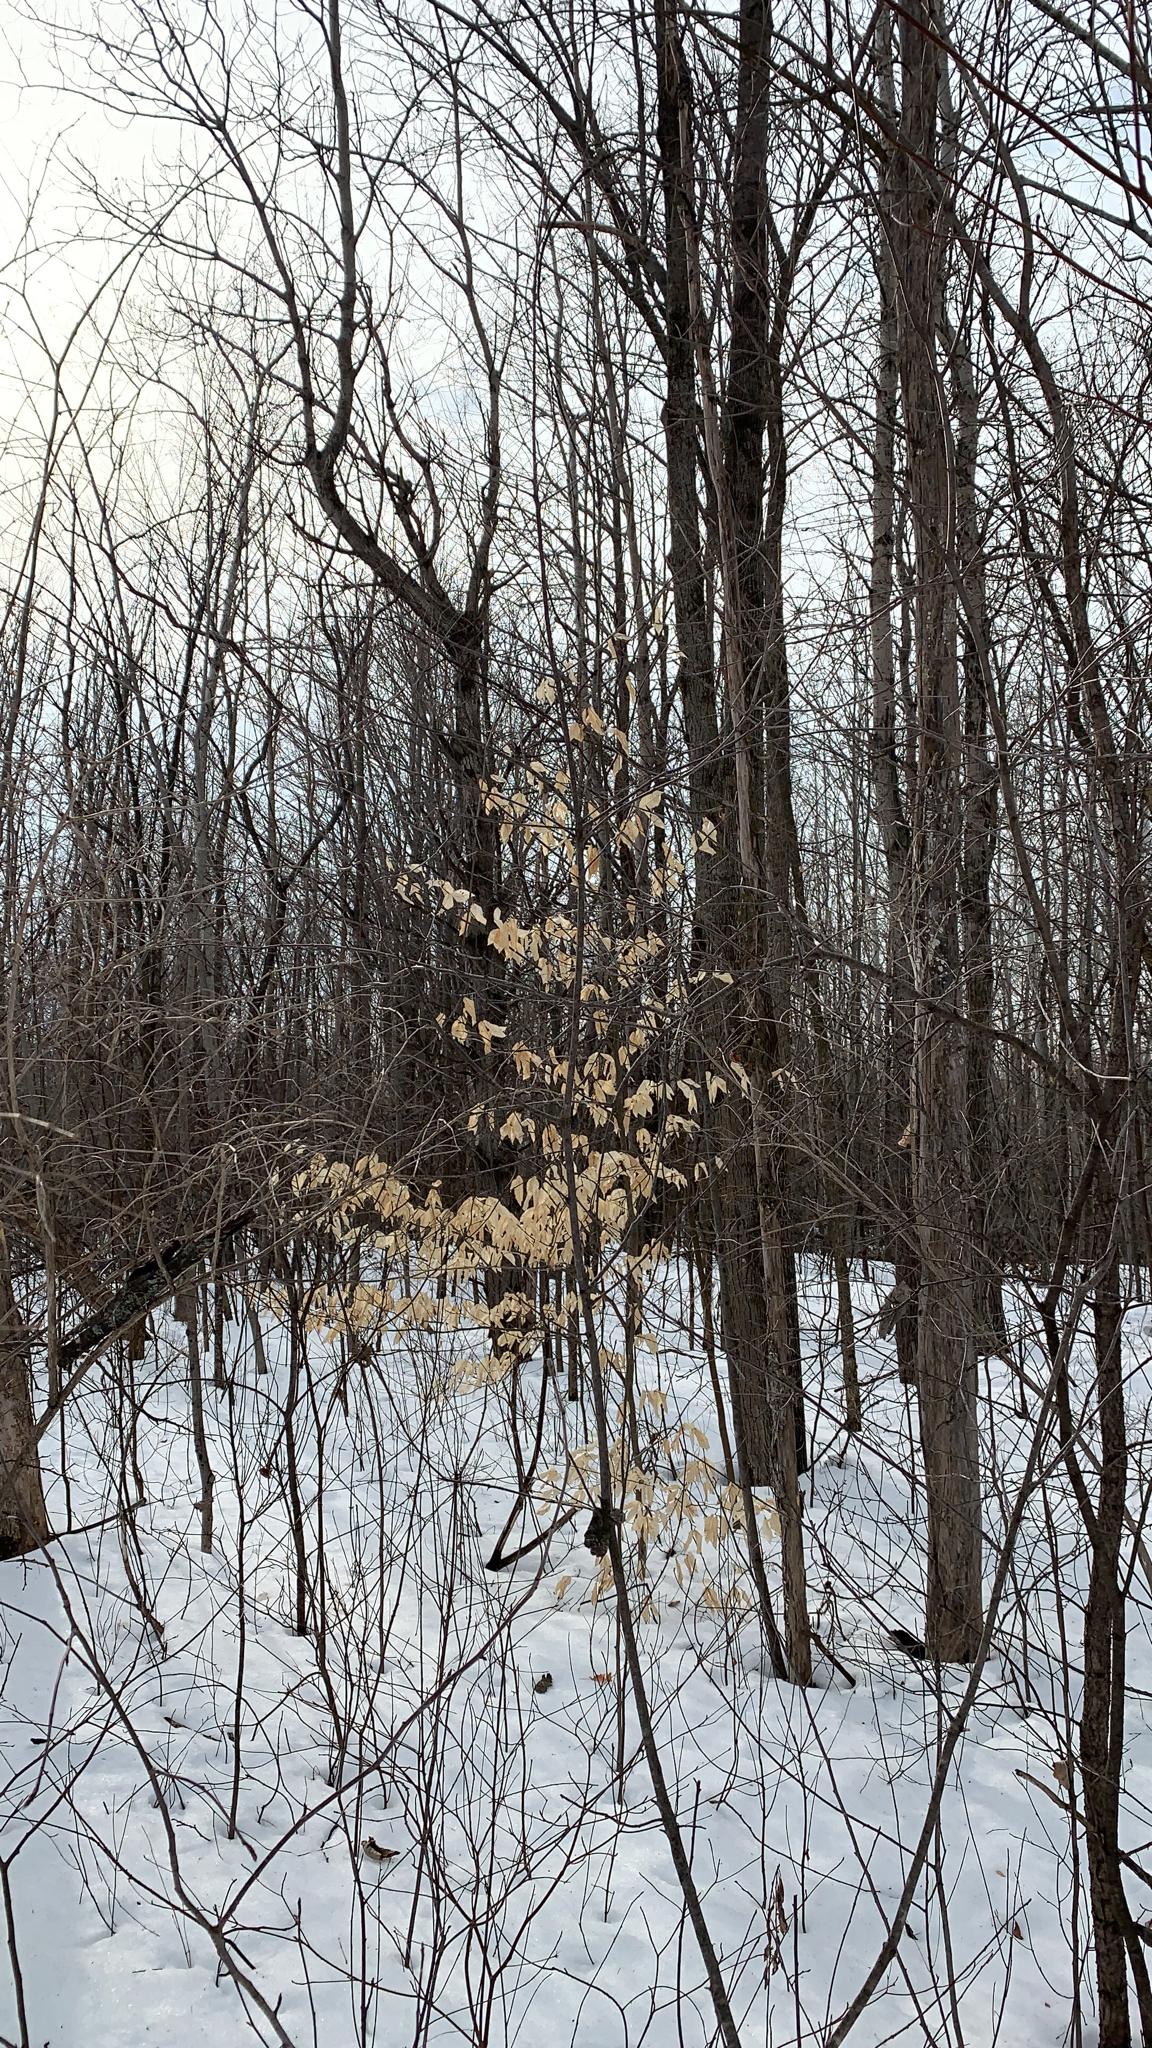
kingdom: Plantae
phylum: Tracheophyta
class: Magnoliopsida
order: Fagales
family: Fagaceae
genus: Fagus
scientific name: Fagus grandifolia
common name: American beech
